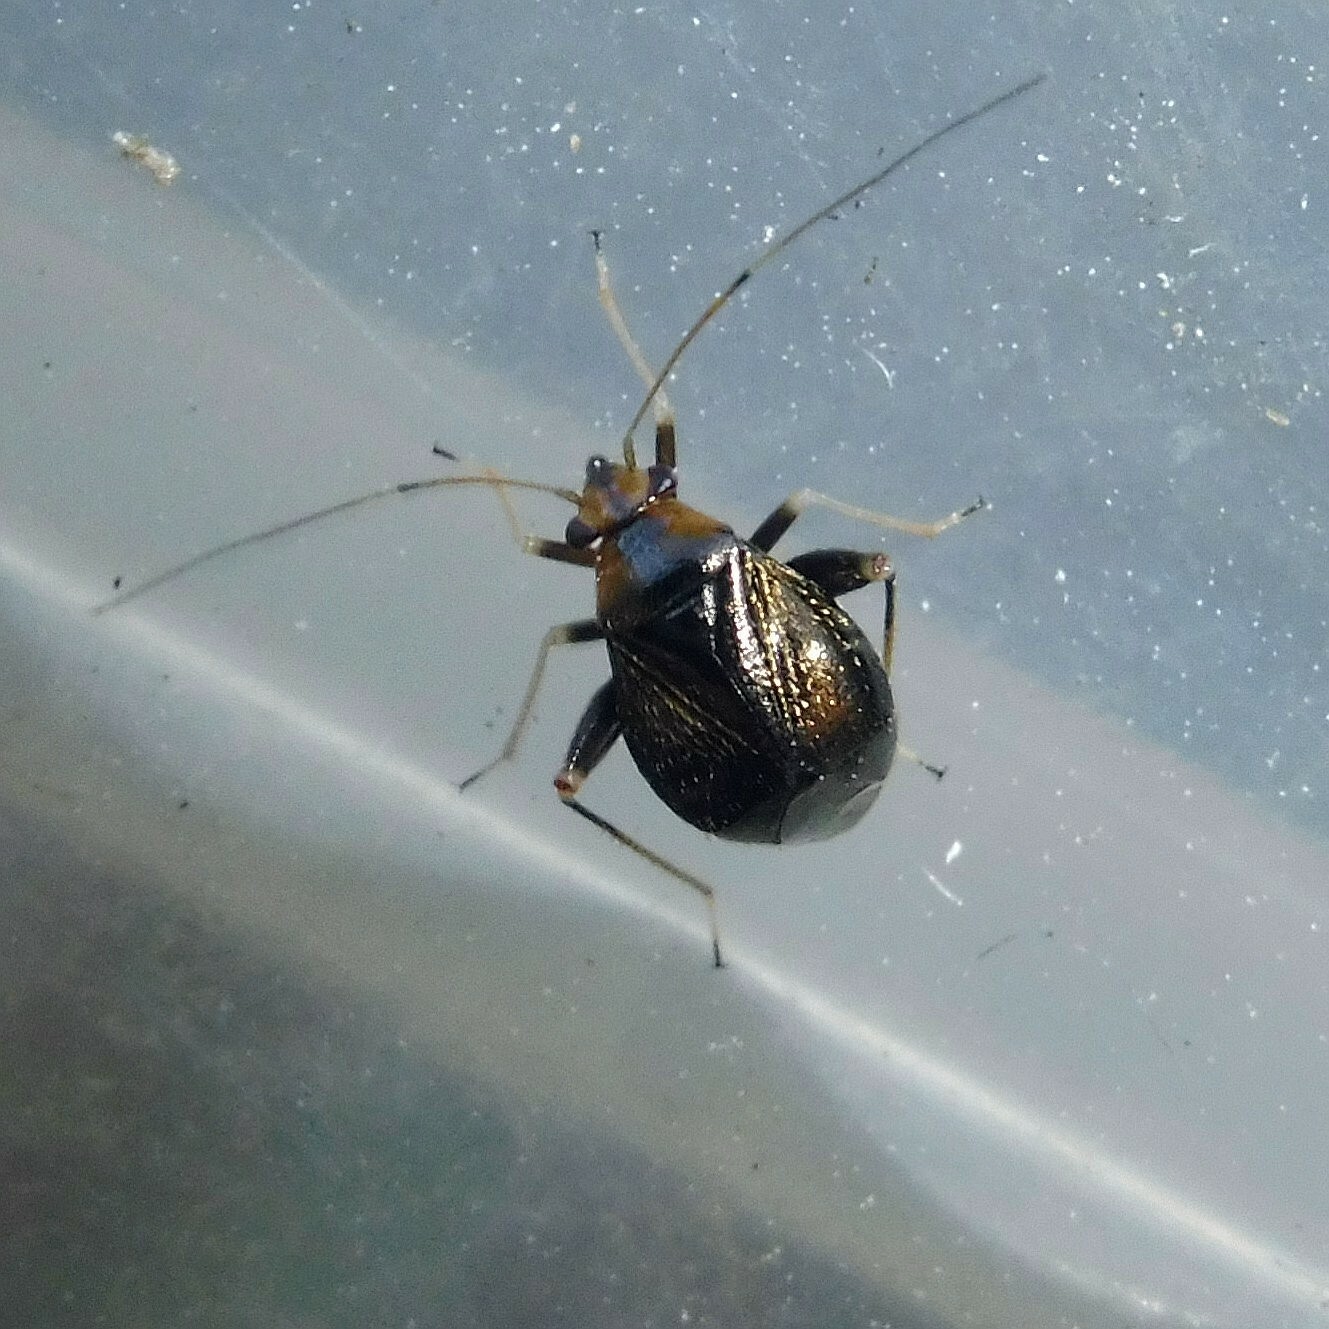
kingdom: Animalia
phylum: Arthropoda
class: Insecta
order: Hemiptera
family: Miridae
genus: Halticus
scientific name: Halticus luteicollis
